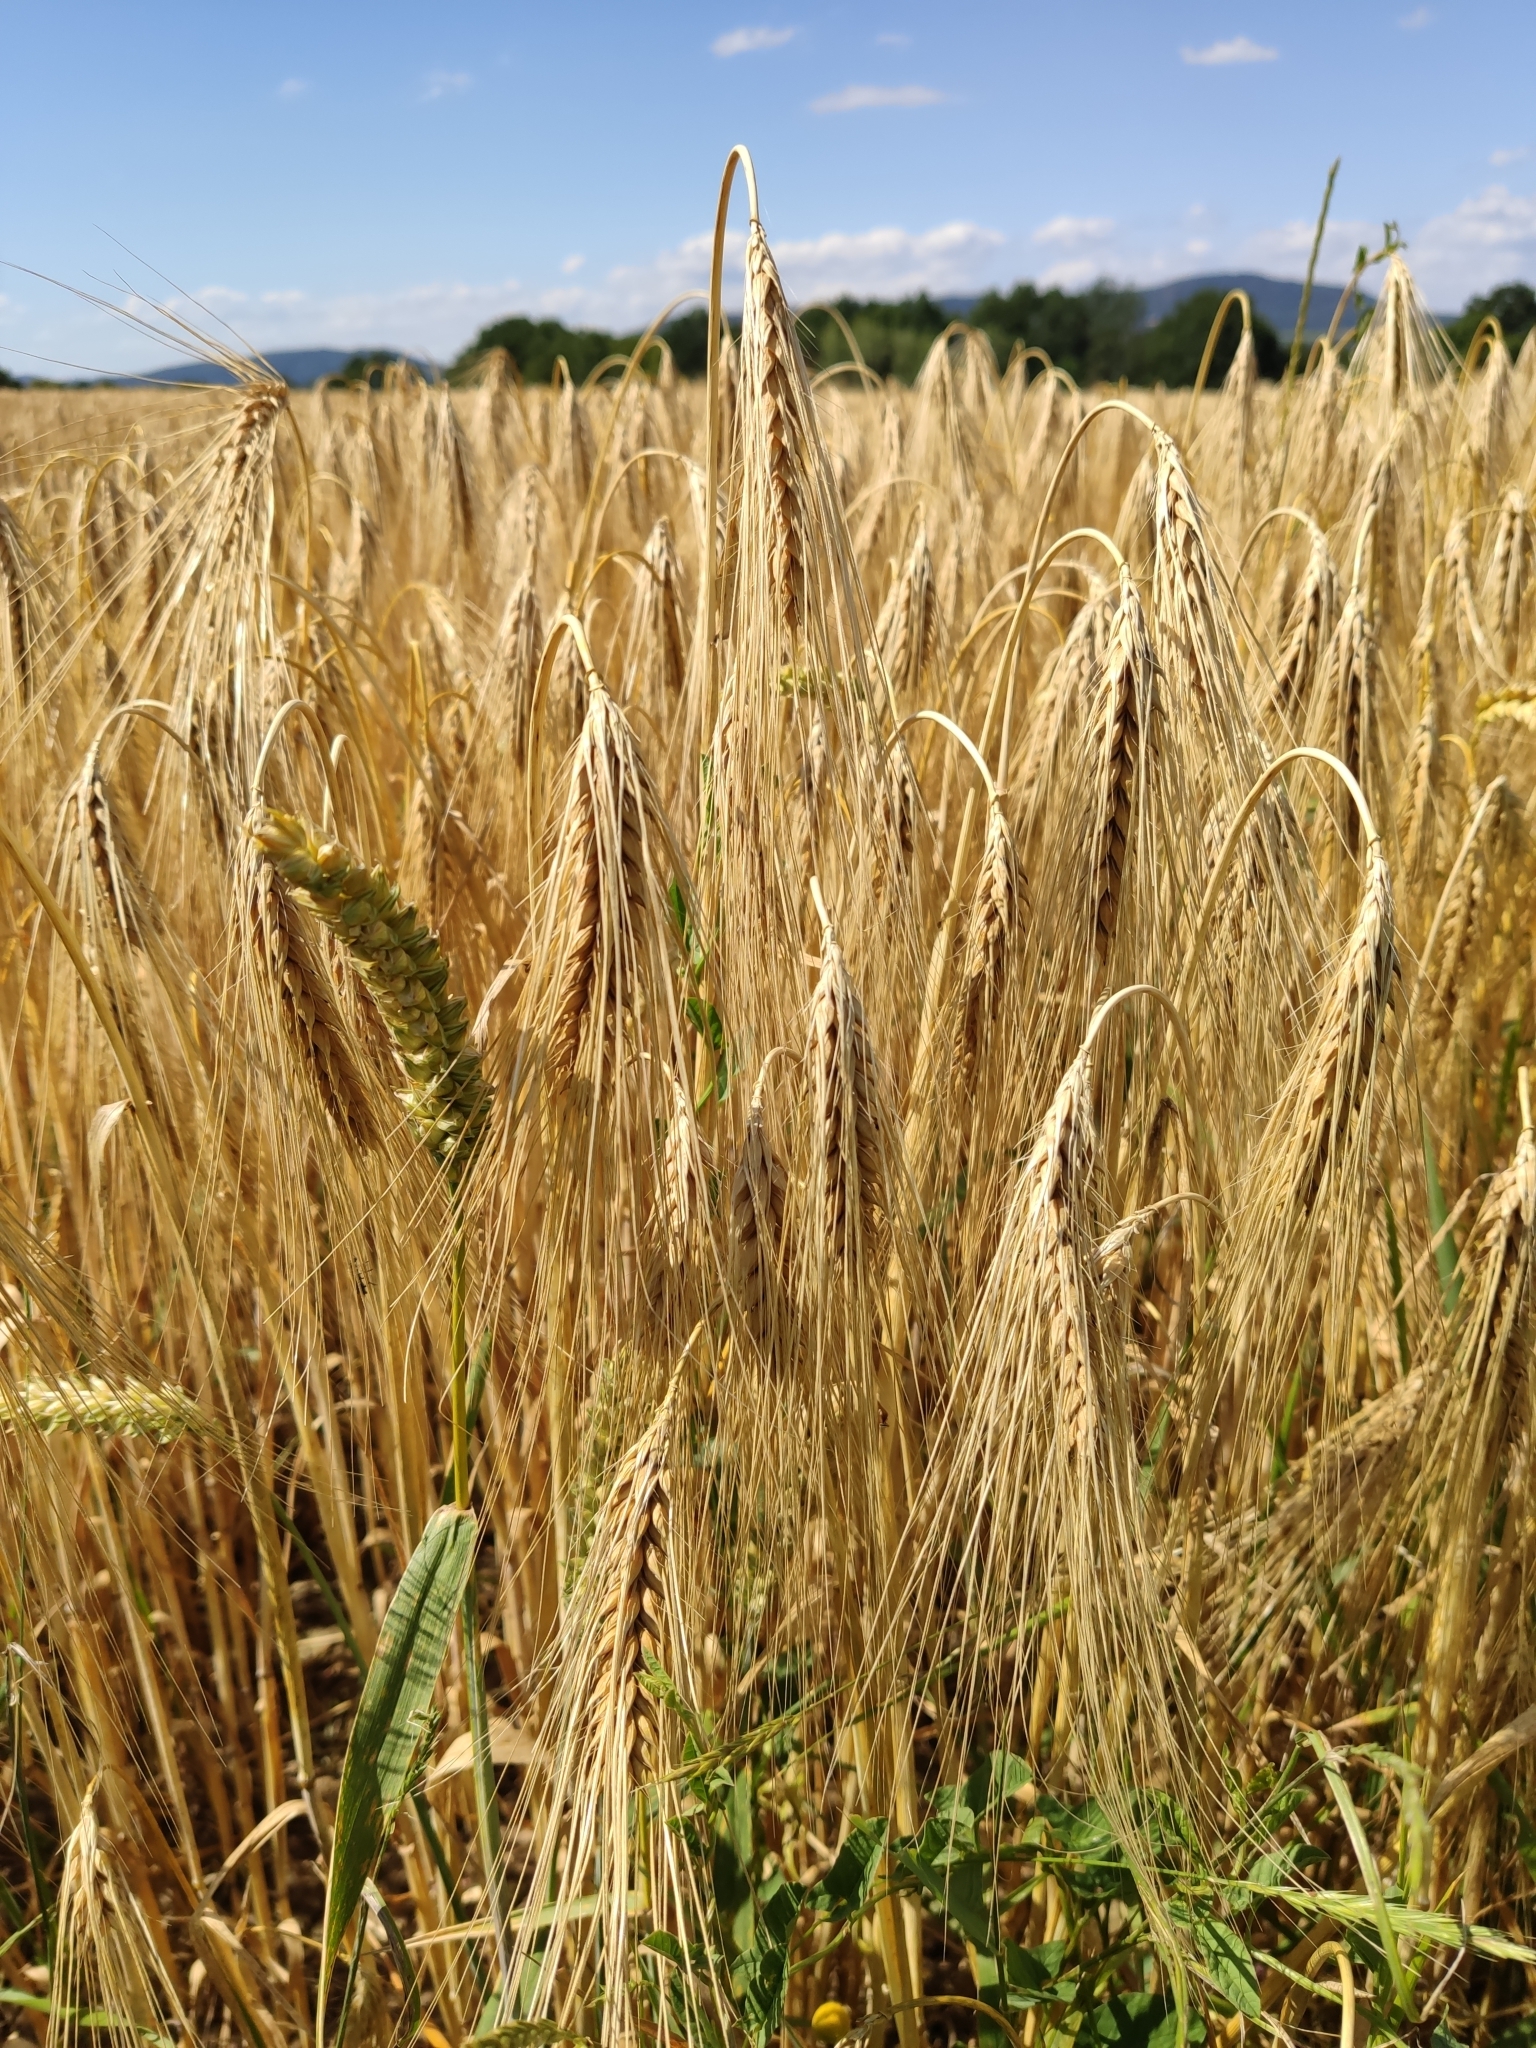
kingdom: Plantae
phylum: Tracheophyta
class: Liliopsida
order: Poales
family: Poaceae
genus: Hordeum
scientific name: Hordeum vulgare
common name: Common barley
